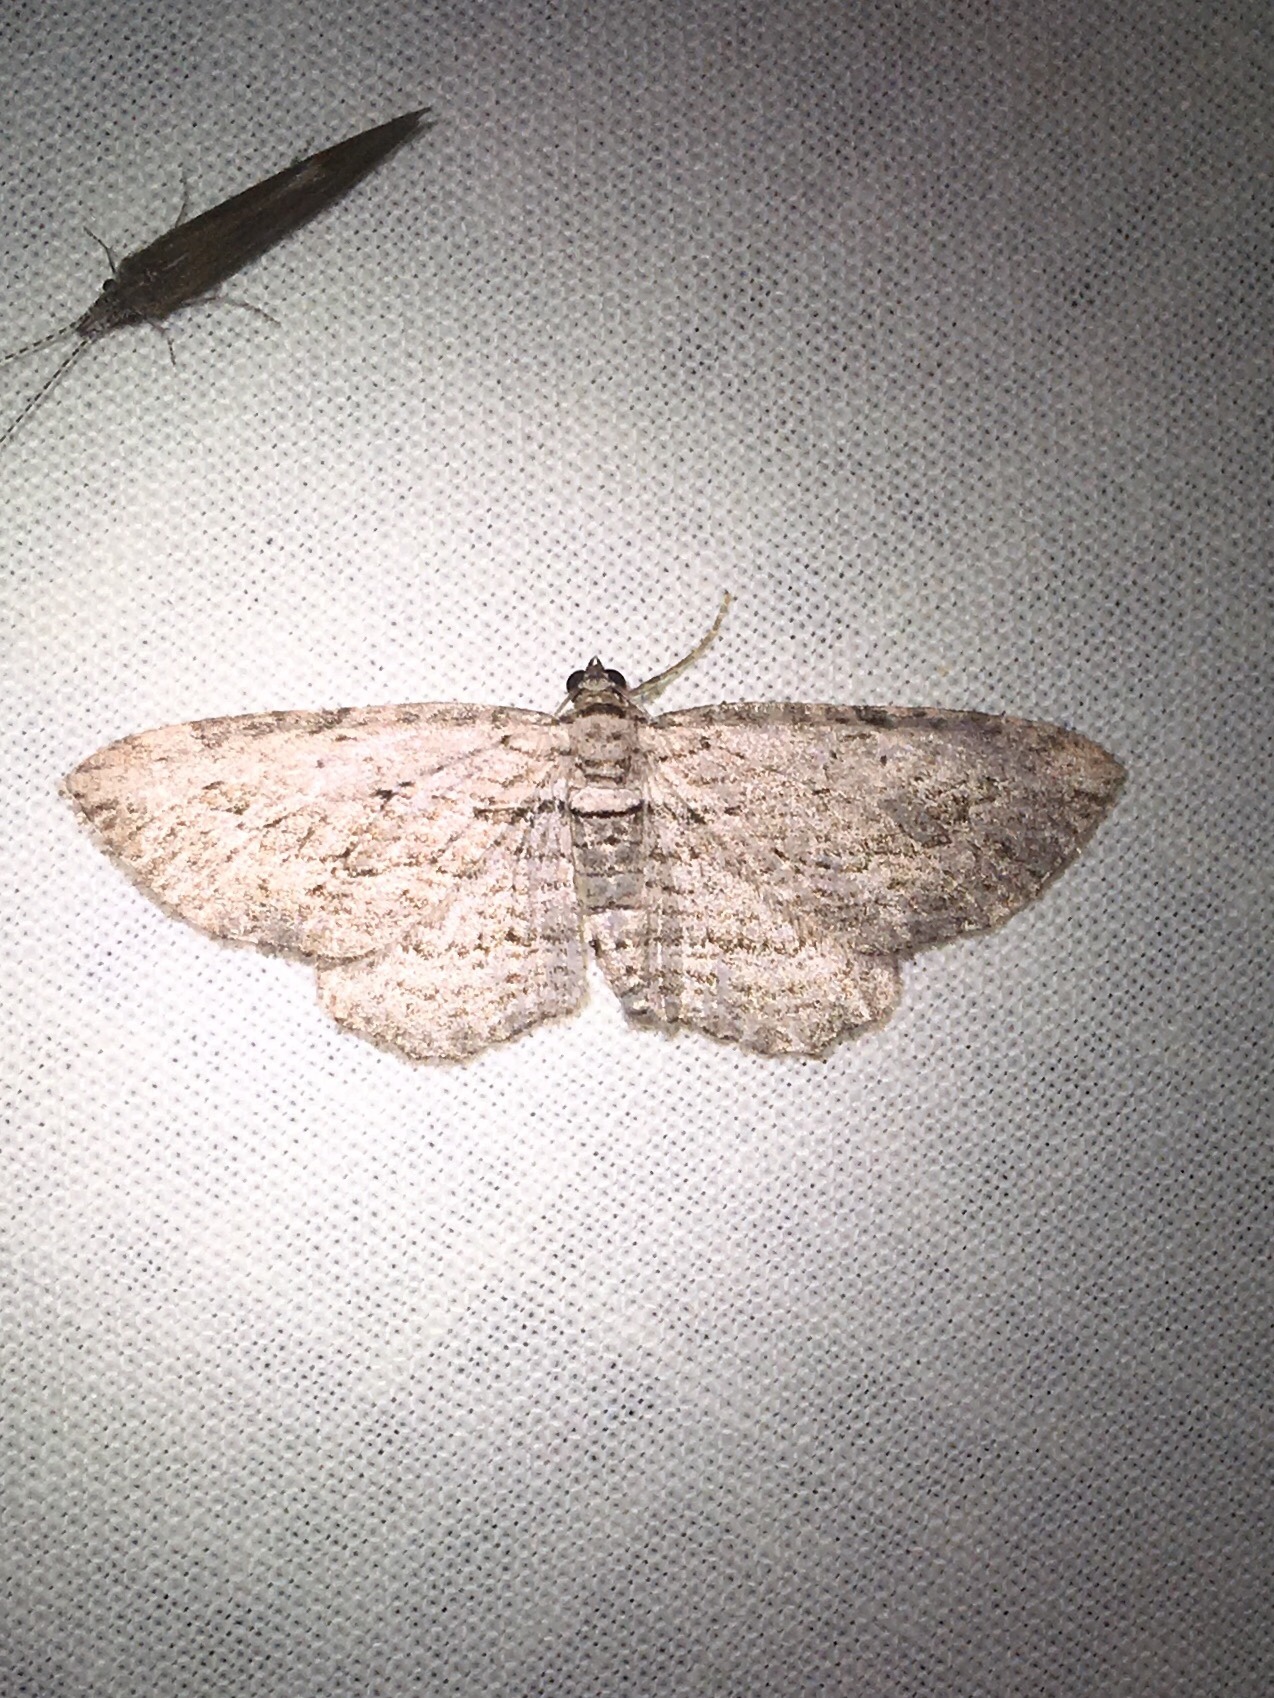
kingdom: Animalia
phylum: Arthropoda
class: Insecta
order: Lepidoptera
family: Geometridae
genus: Horisme
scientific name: Horisme intestinata
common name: Brown bark carpet
